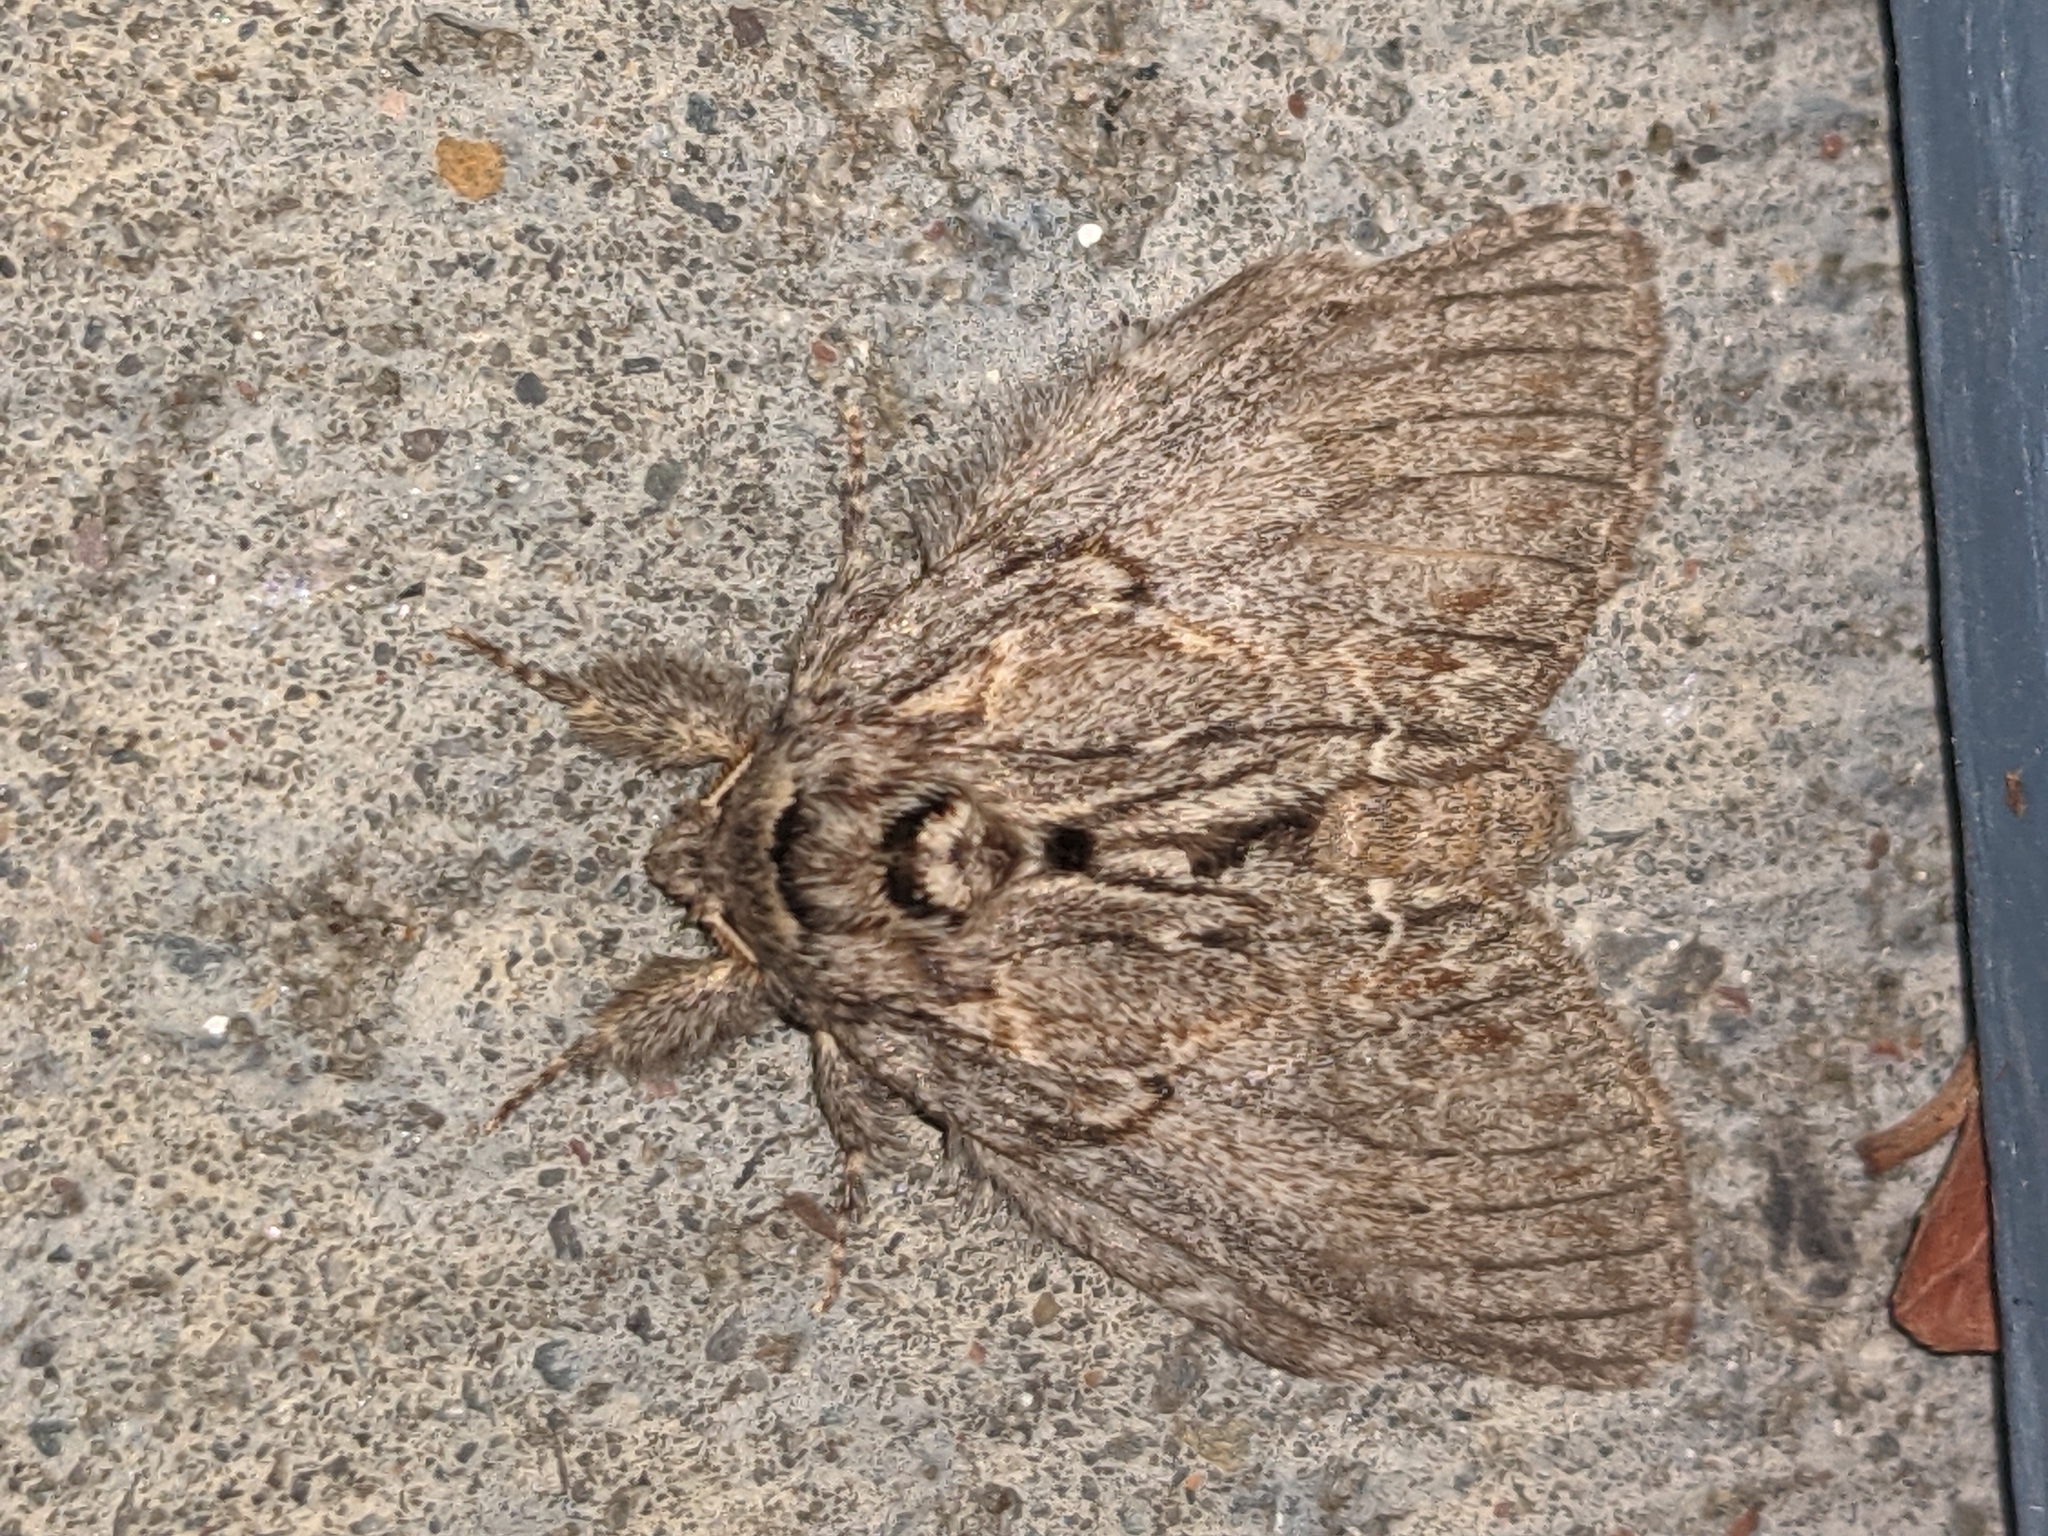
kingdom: Animalia
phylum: Arthropoda
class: Insecta
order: Lepidoptera
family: Notodontidae
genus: Peridea
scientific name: Peridea basitriens
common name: Oval-based prominent
